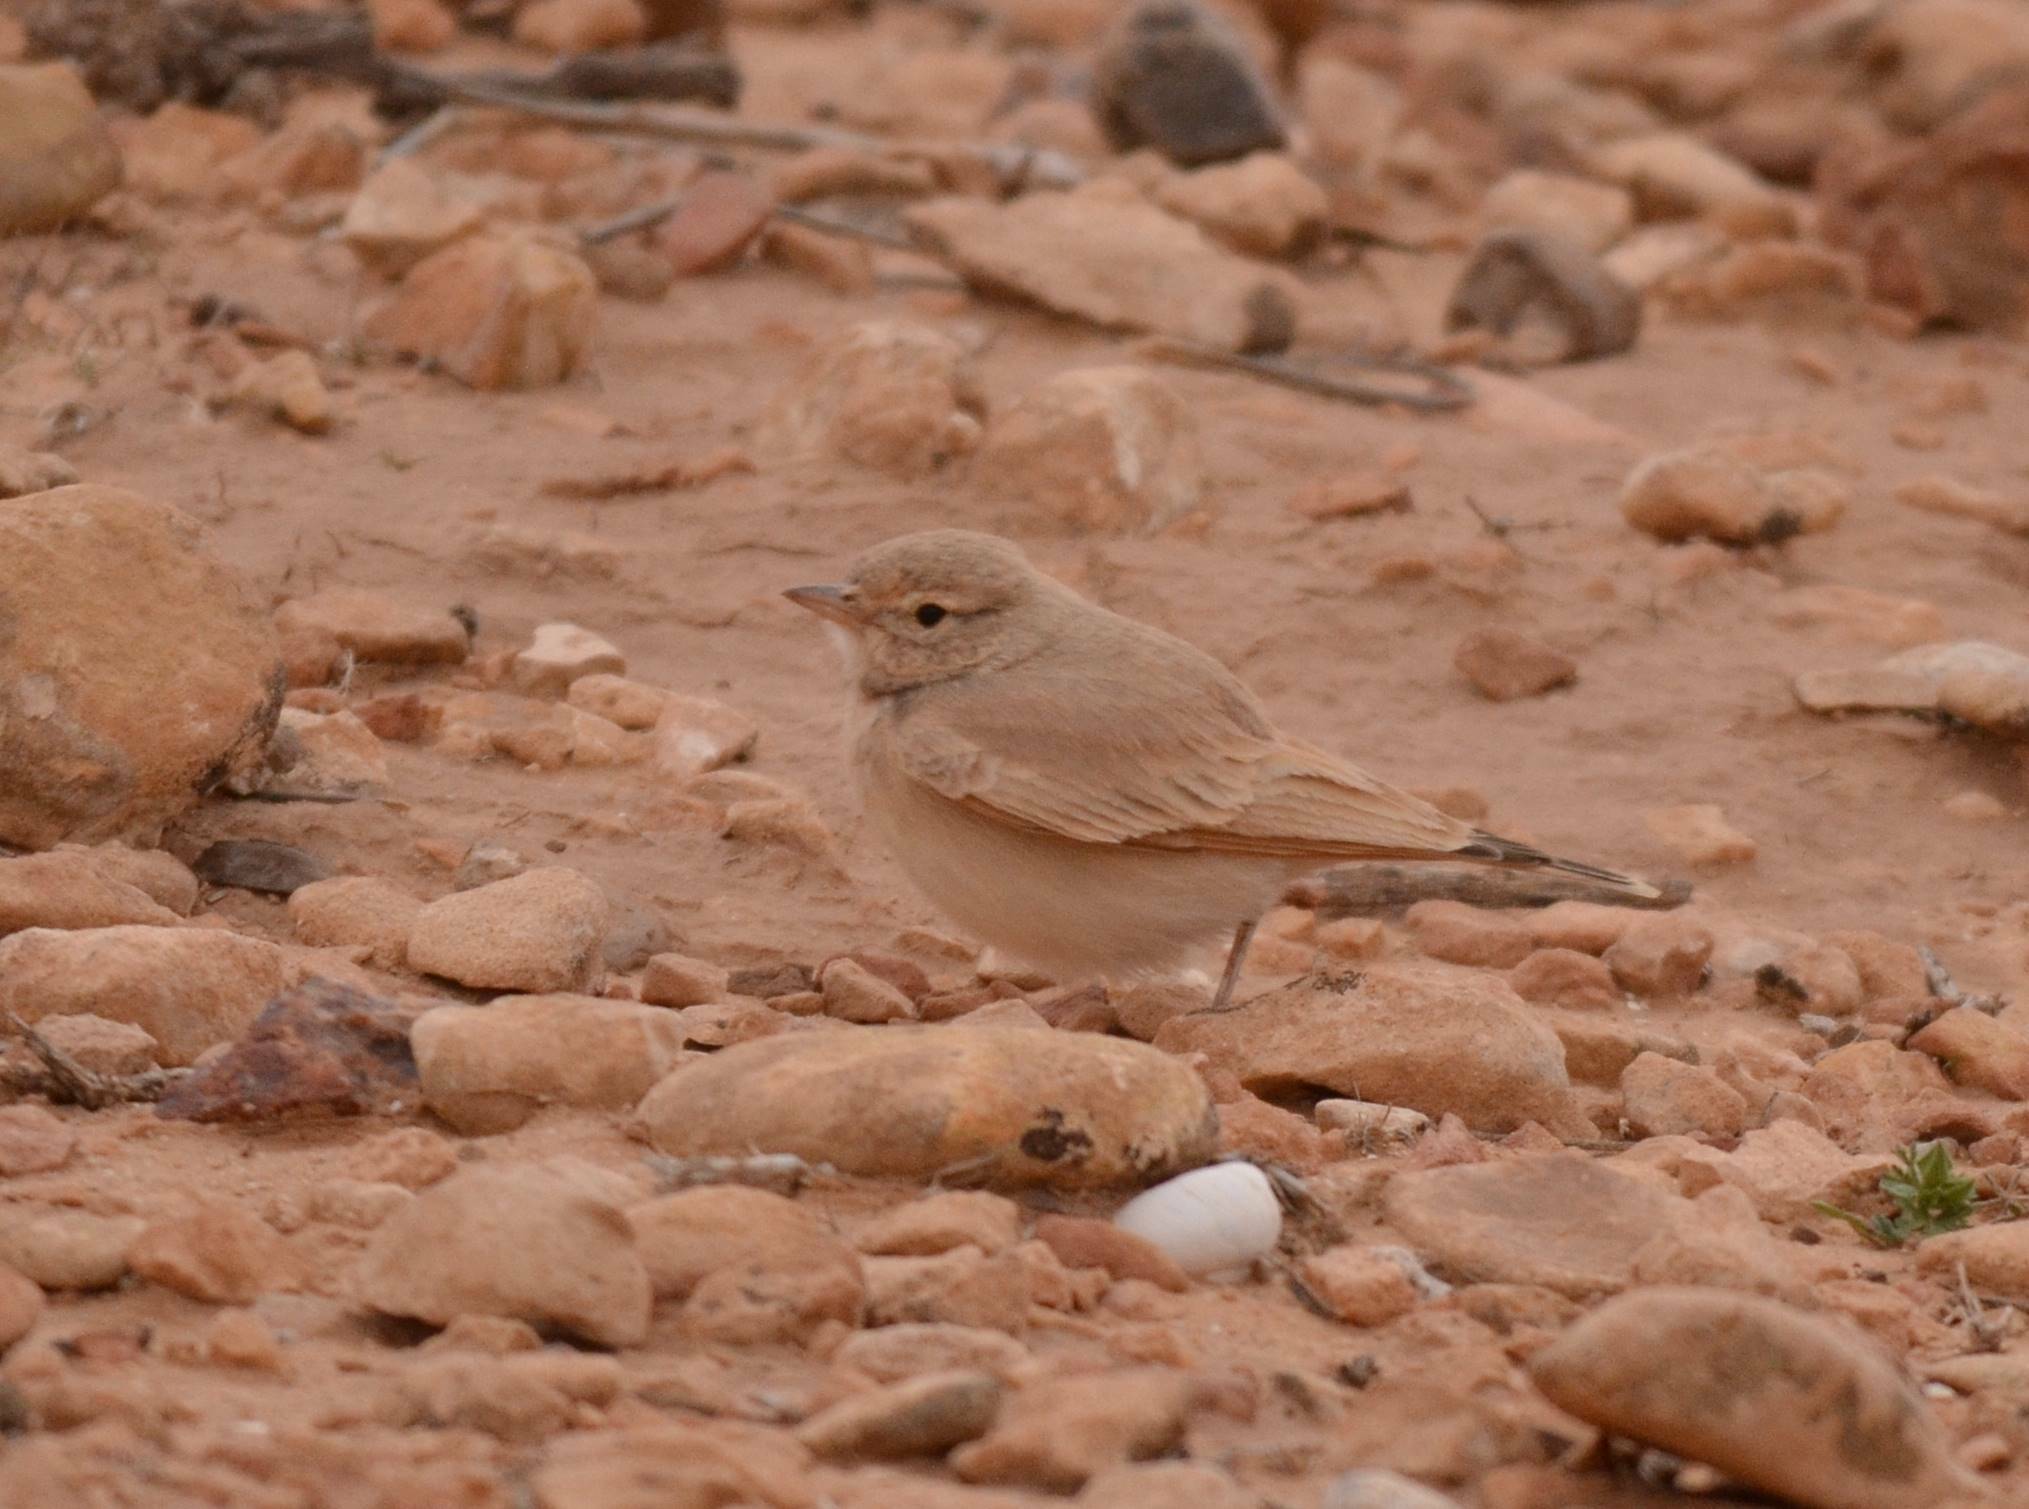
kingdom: Animalia
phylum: Chordata
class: Aves
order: Passeriformes
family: Alaudidae
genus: Ammomanes
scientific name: Ammomanes cinctura
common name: Bar-tailed lark
